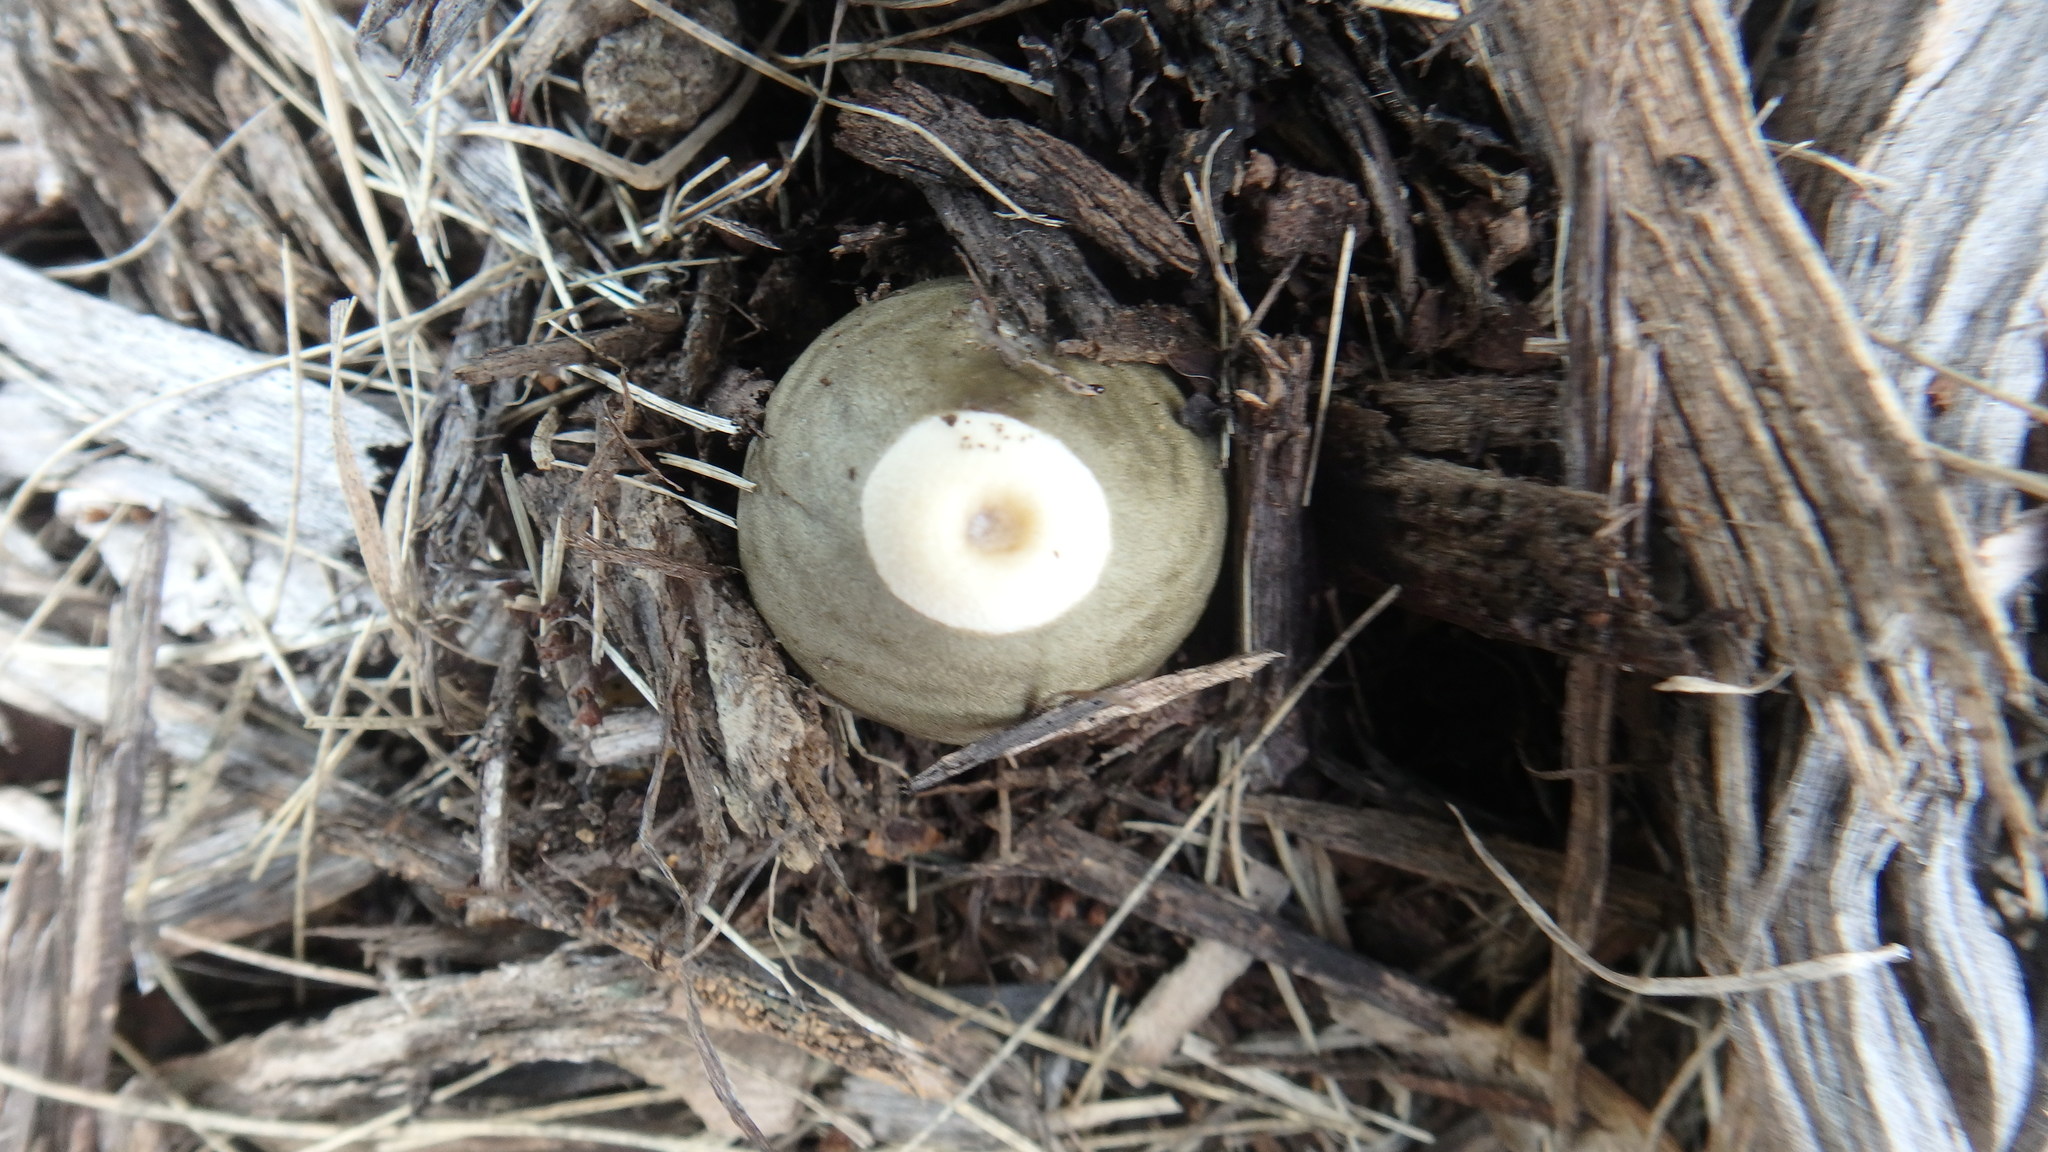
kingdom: Fungi
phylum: Basidiomycota
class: Agaricomycetes
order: Phallales
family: Phallaceae
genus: Phallus
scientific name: Phallus ravenelii
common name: Ravenel's stinkhorn
